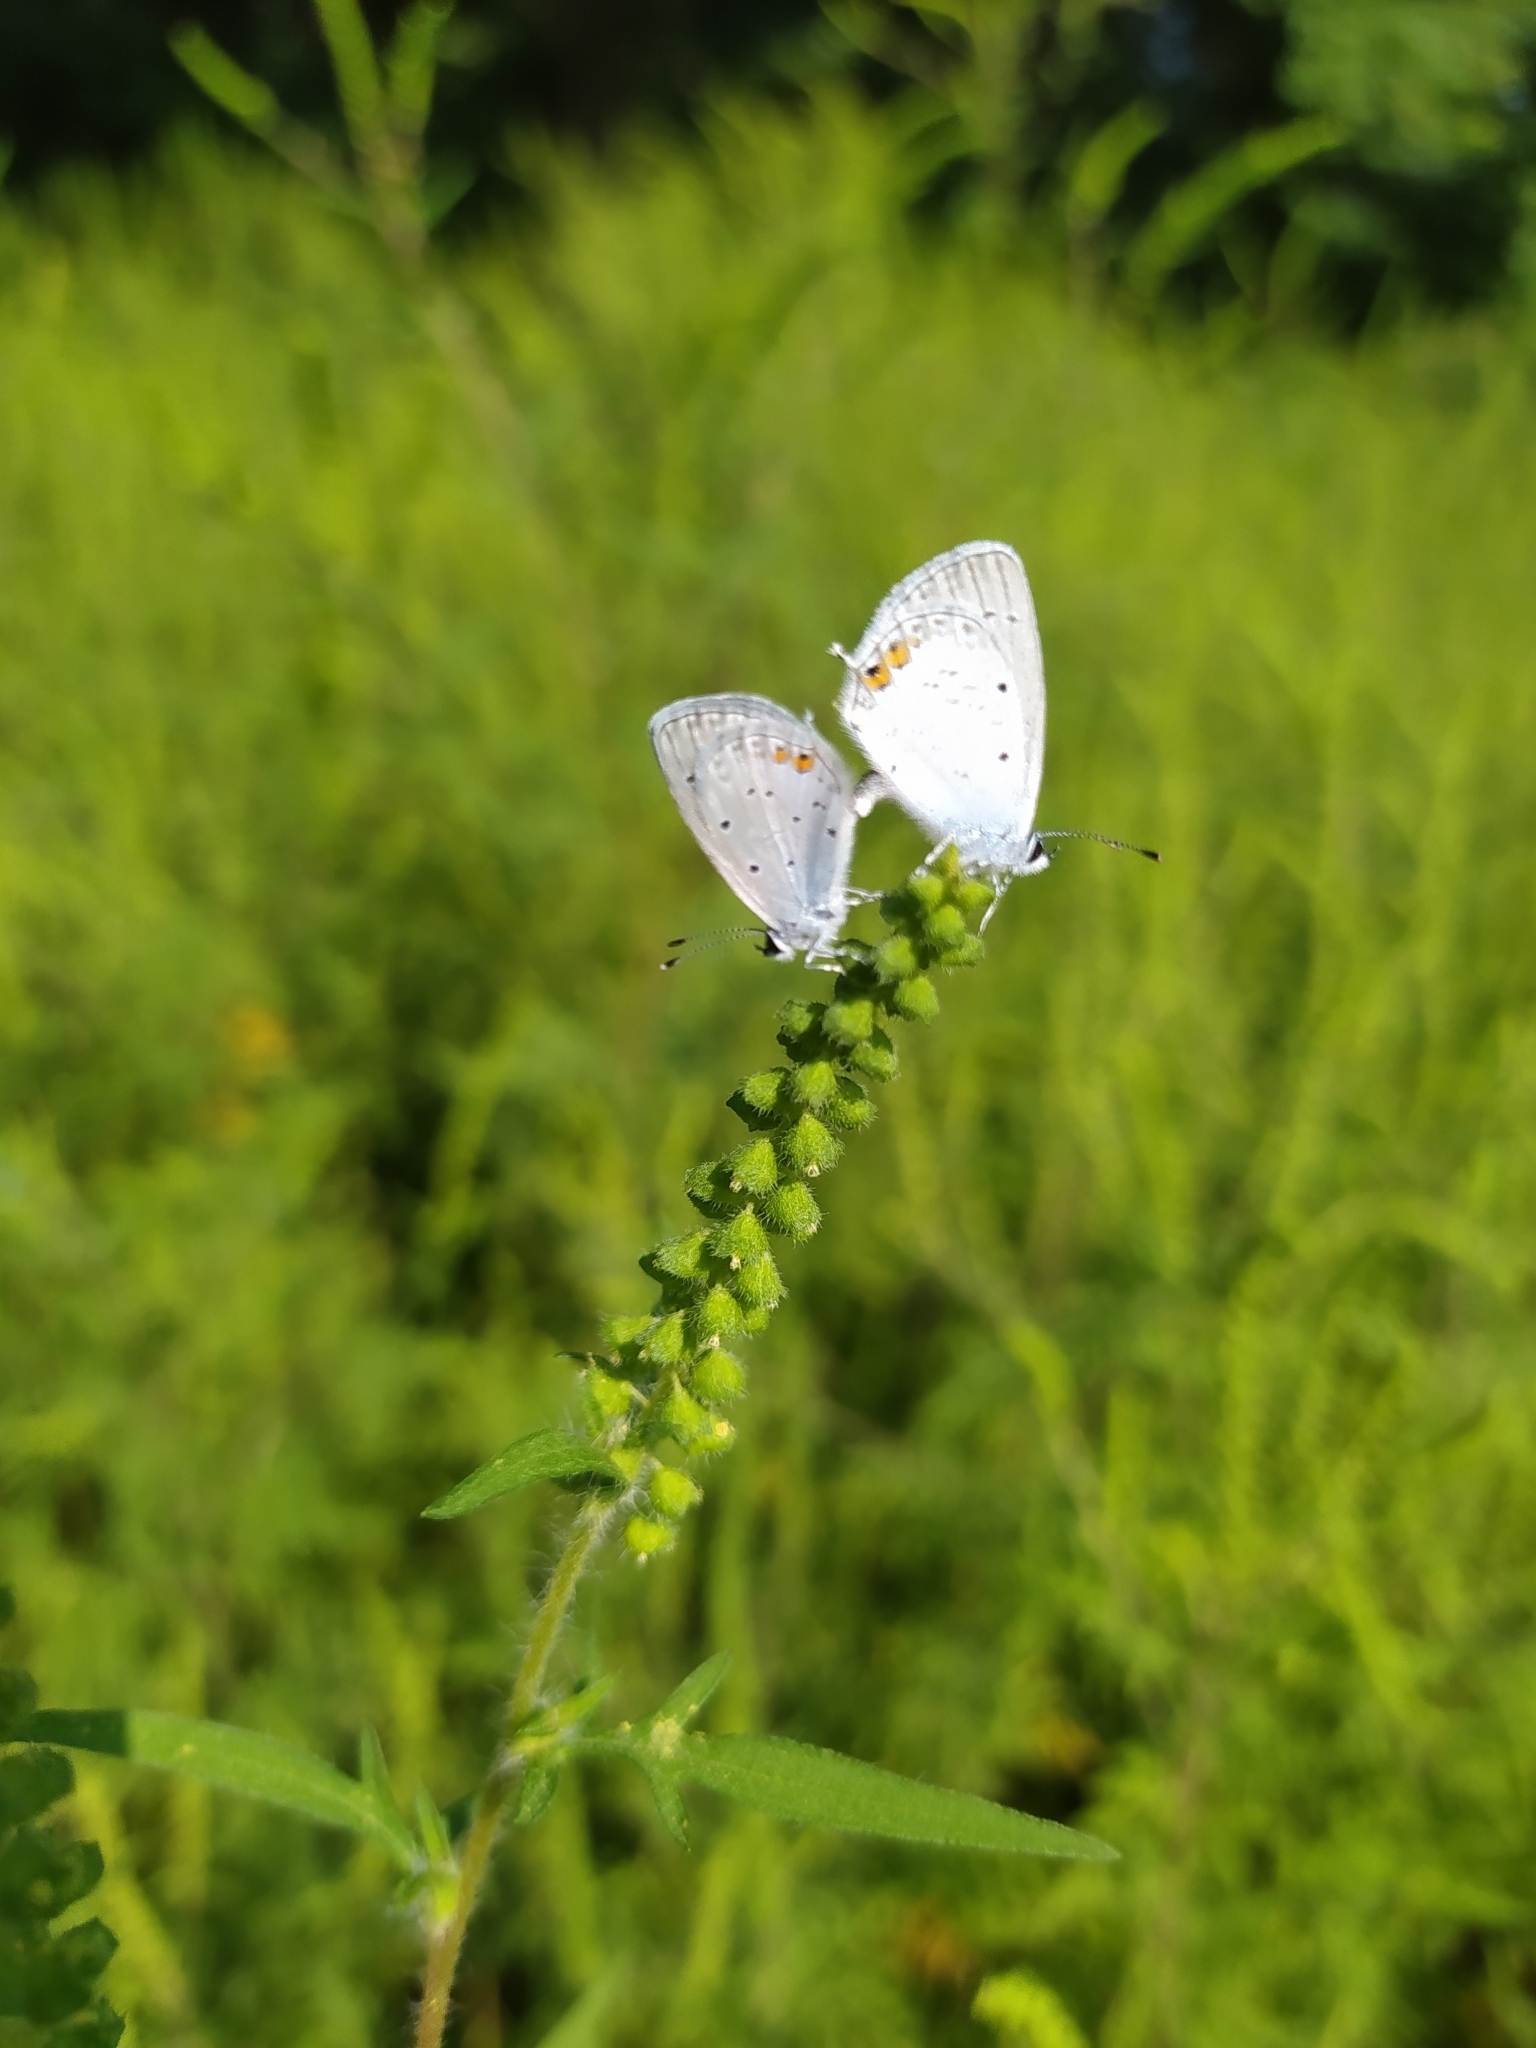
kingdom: Animalia
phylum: Arthropoda
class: Insecta
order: Lepidoptera
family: Lycaenidae
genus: Elkalyce
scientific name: Elkalyce argiades
